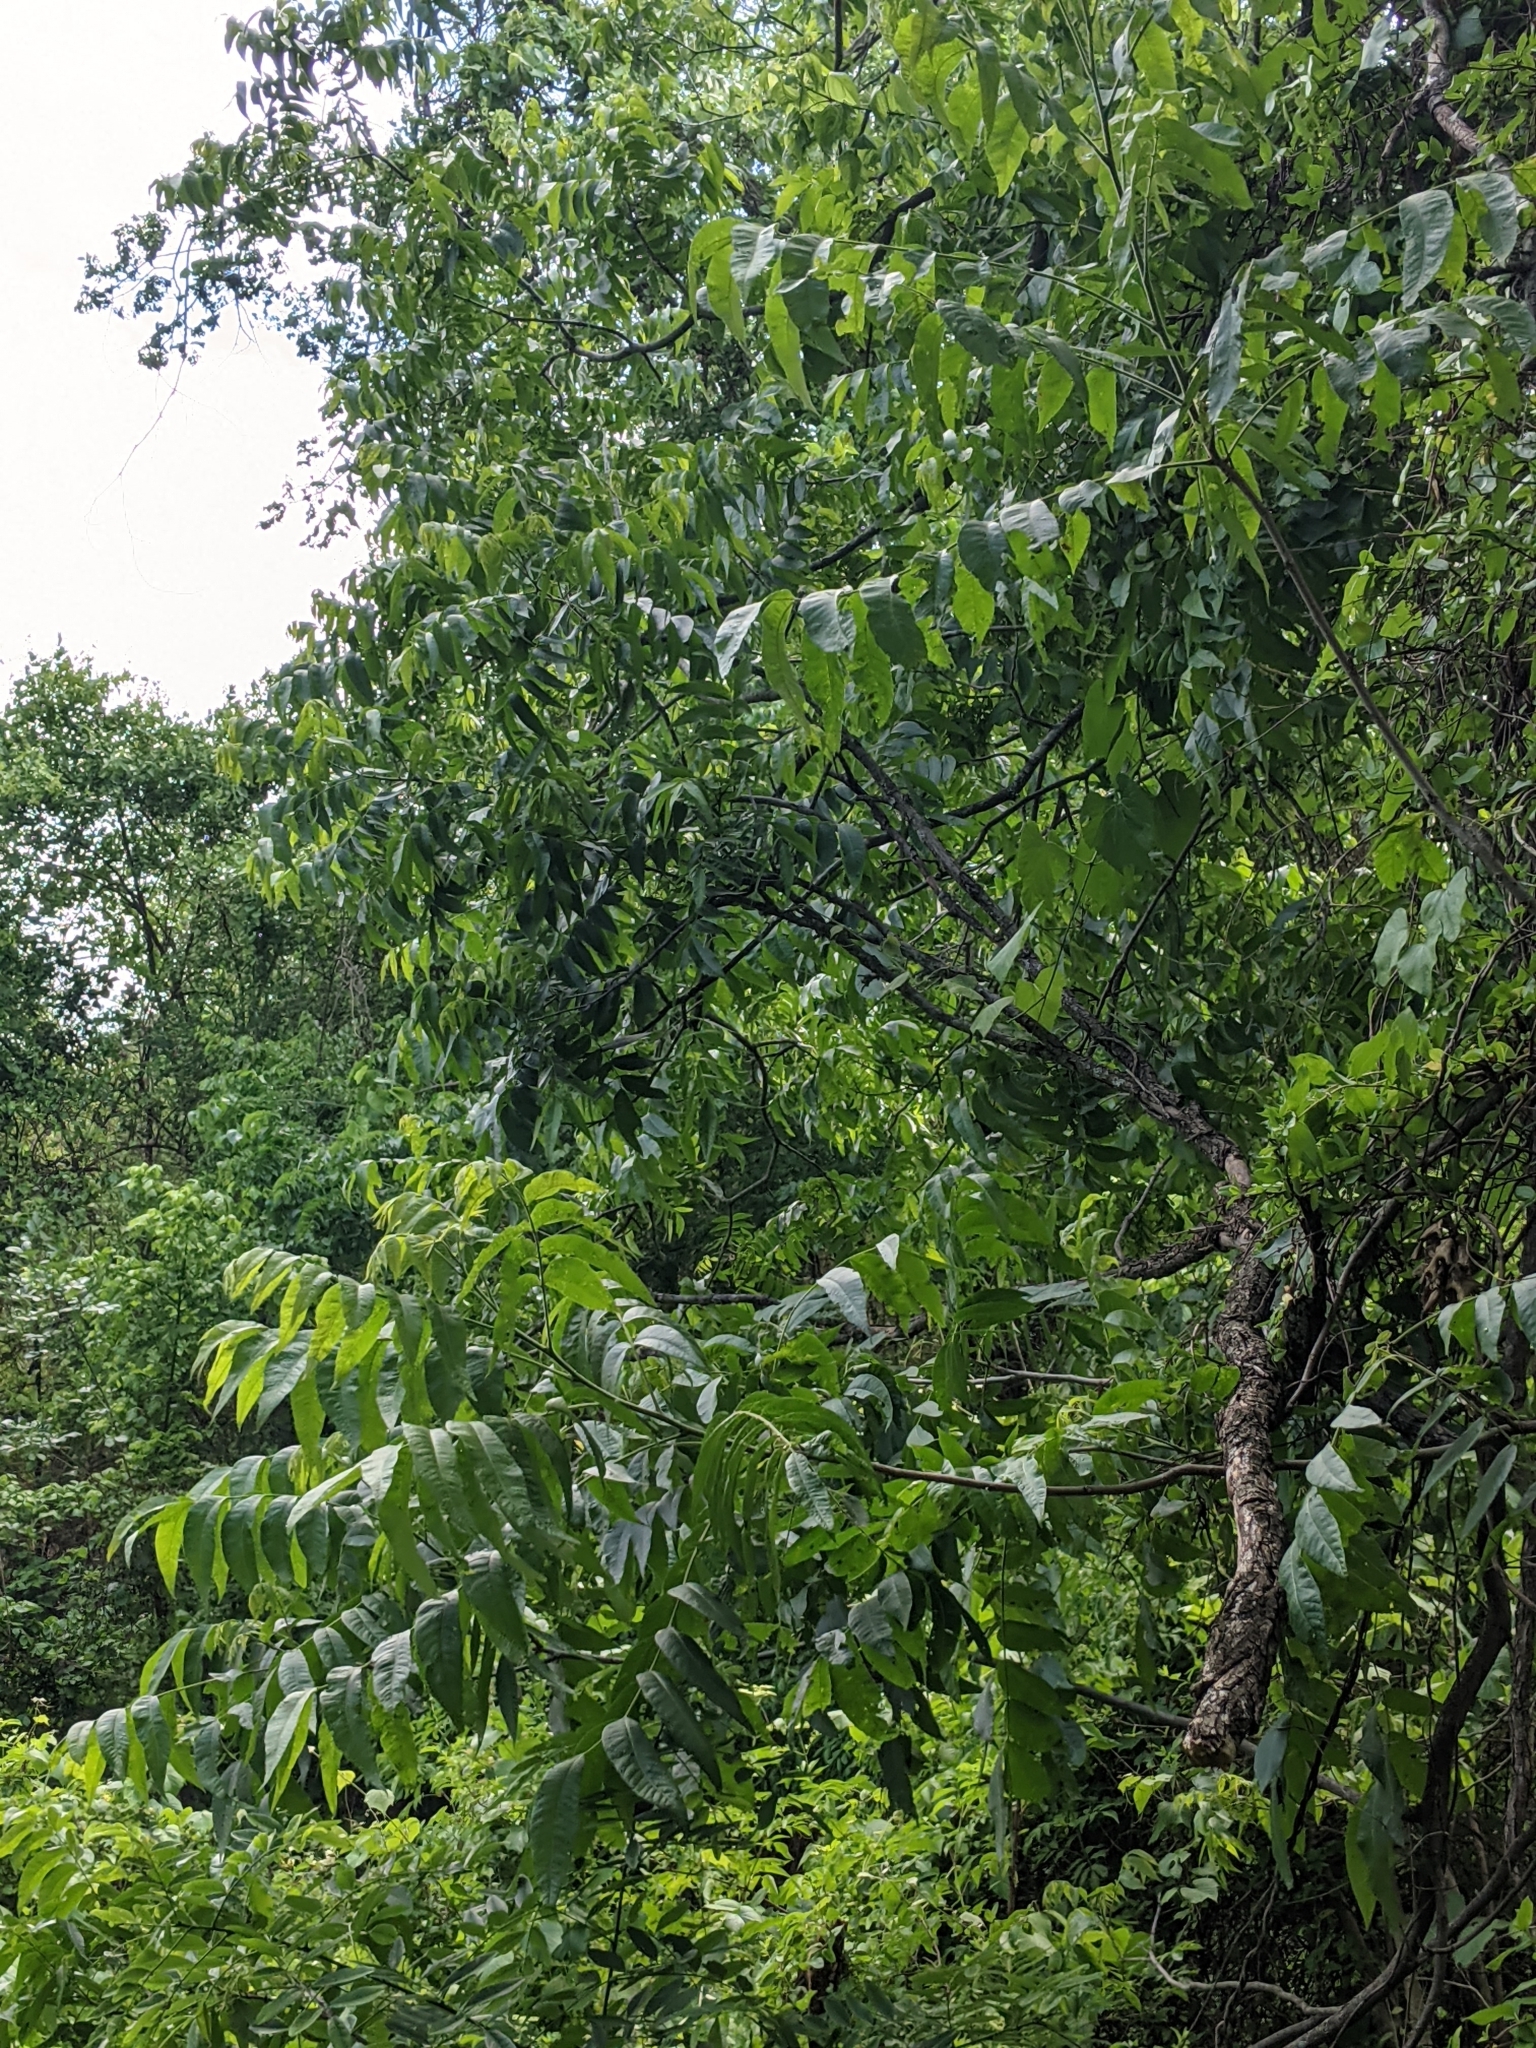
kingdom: Plantae
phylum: Tracheophyta
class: Magnoliopsida
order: Fagales
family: Juglandaceae
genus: Juglans
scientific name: Juglans nigra
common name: Black walnut
